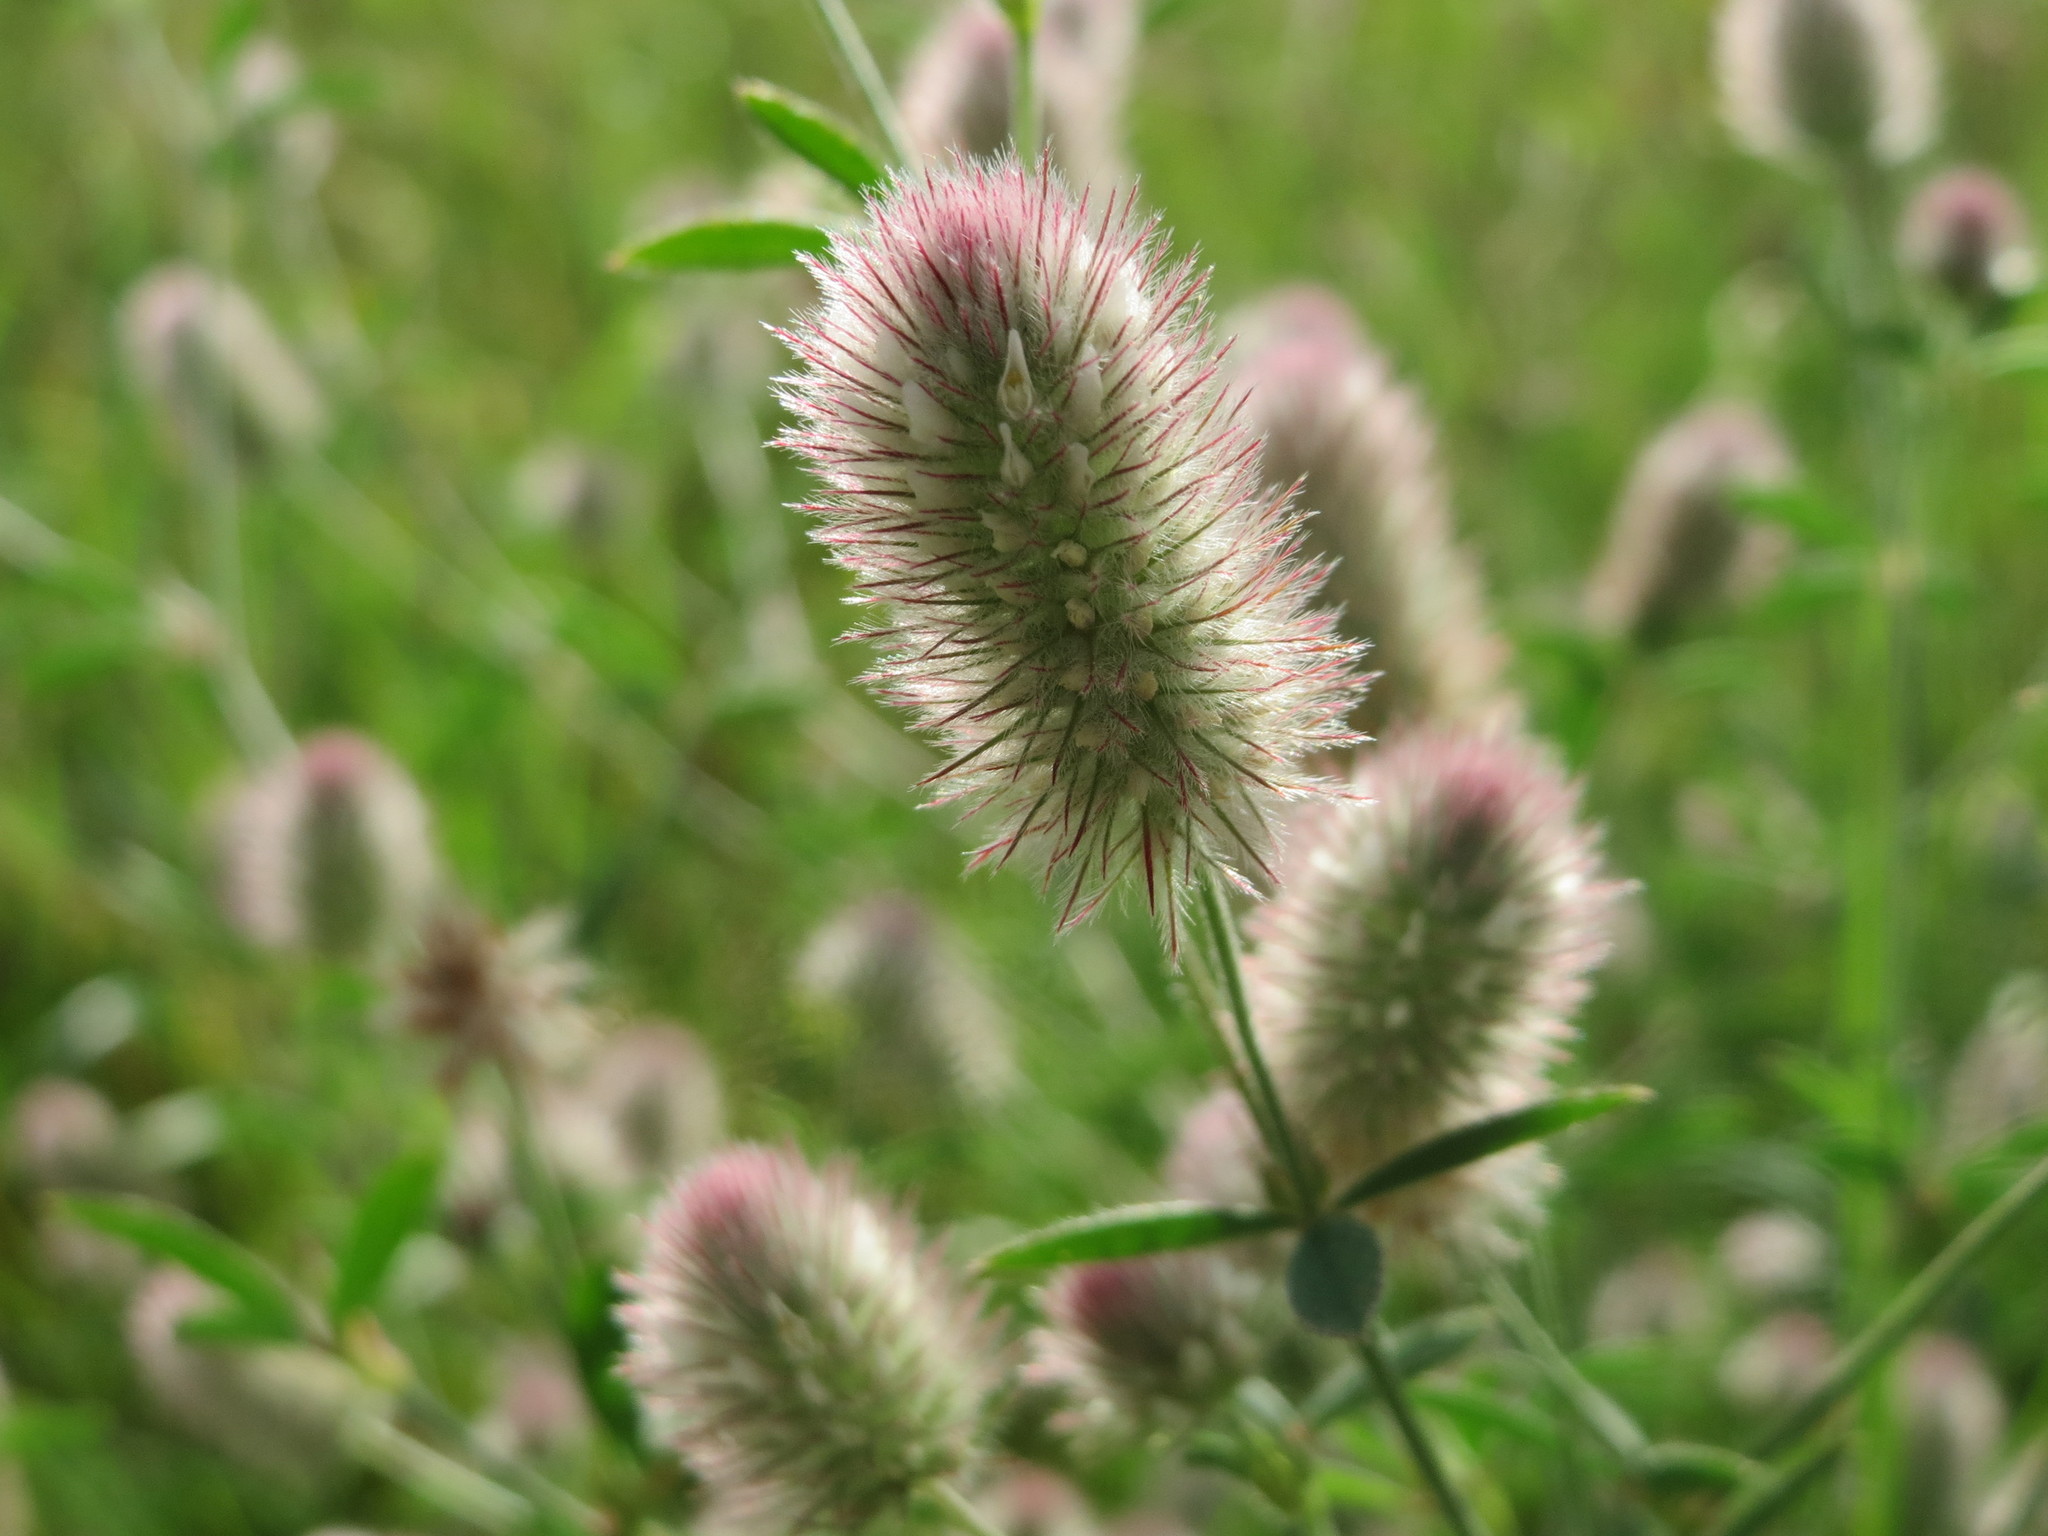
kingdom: Plantae
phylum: Tracheophyta
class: Magnoliopsida
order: Fabales
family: Fabaceae
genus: Trifolium
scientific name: Trifolium arvense
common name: Hare's-foot clover
